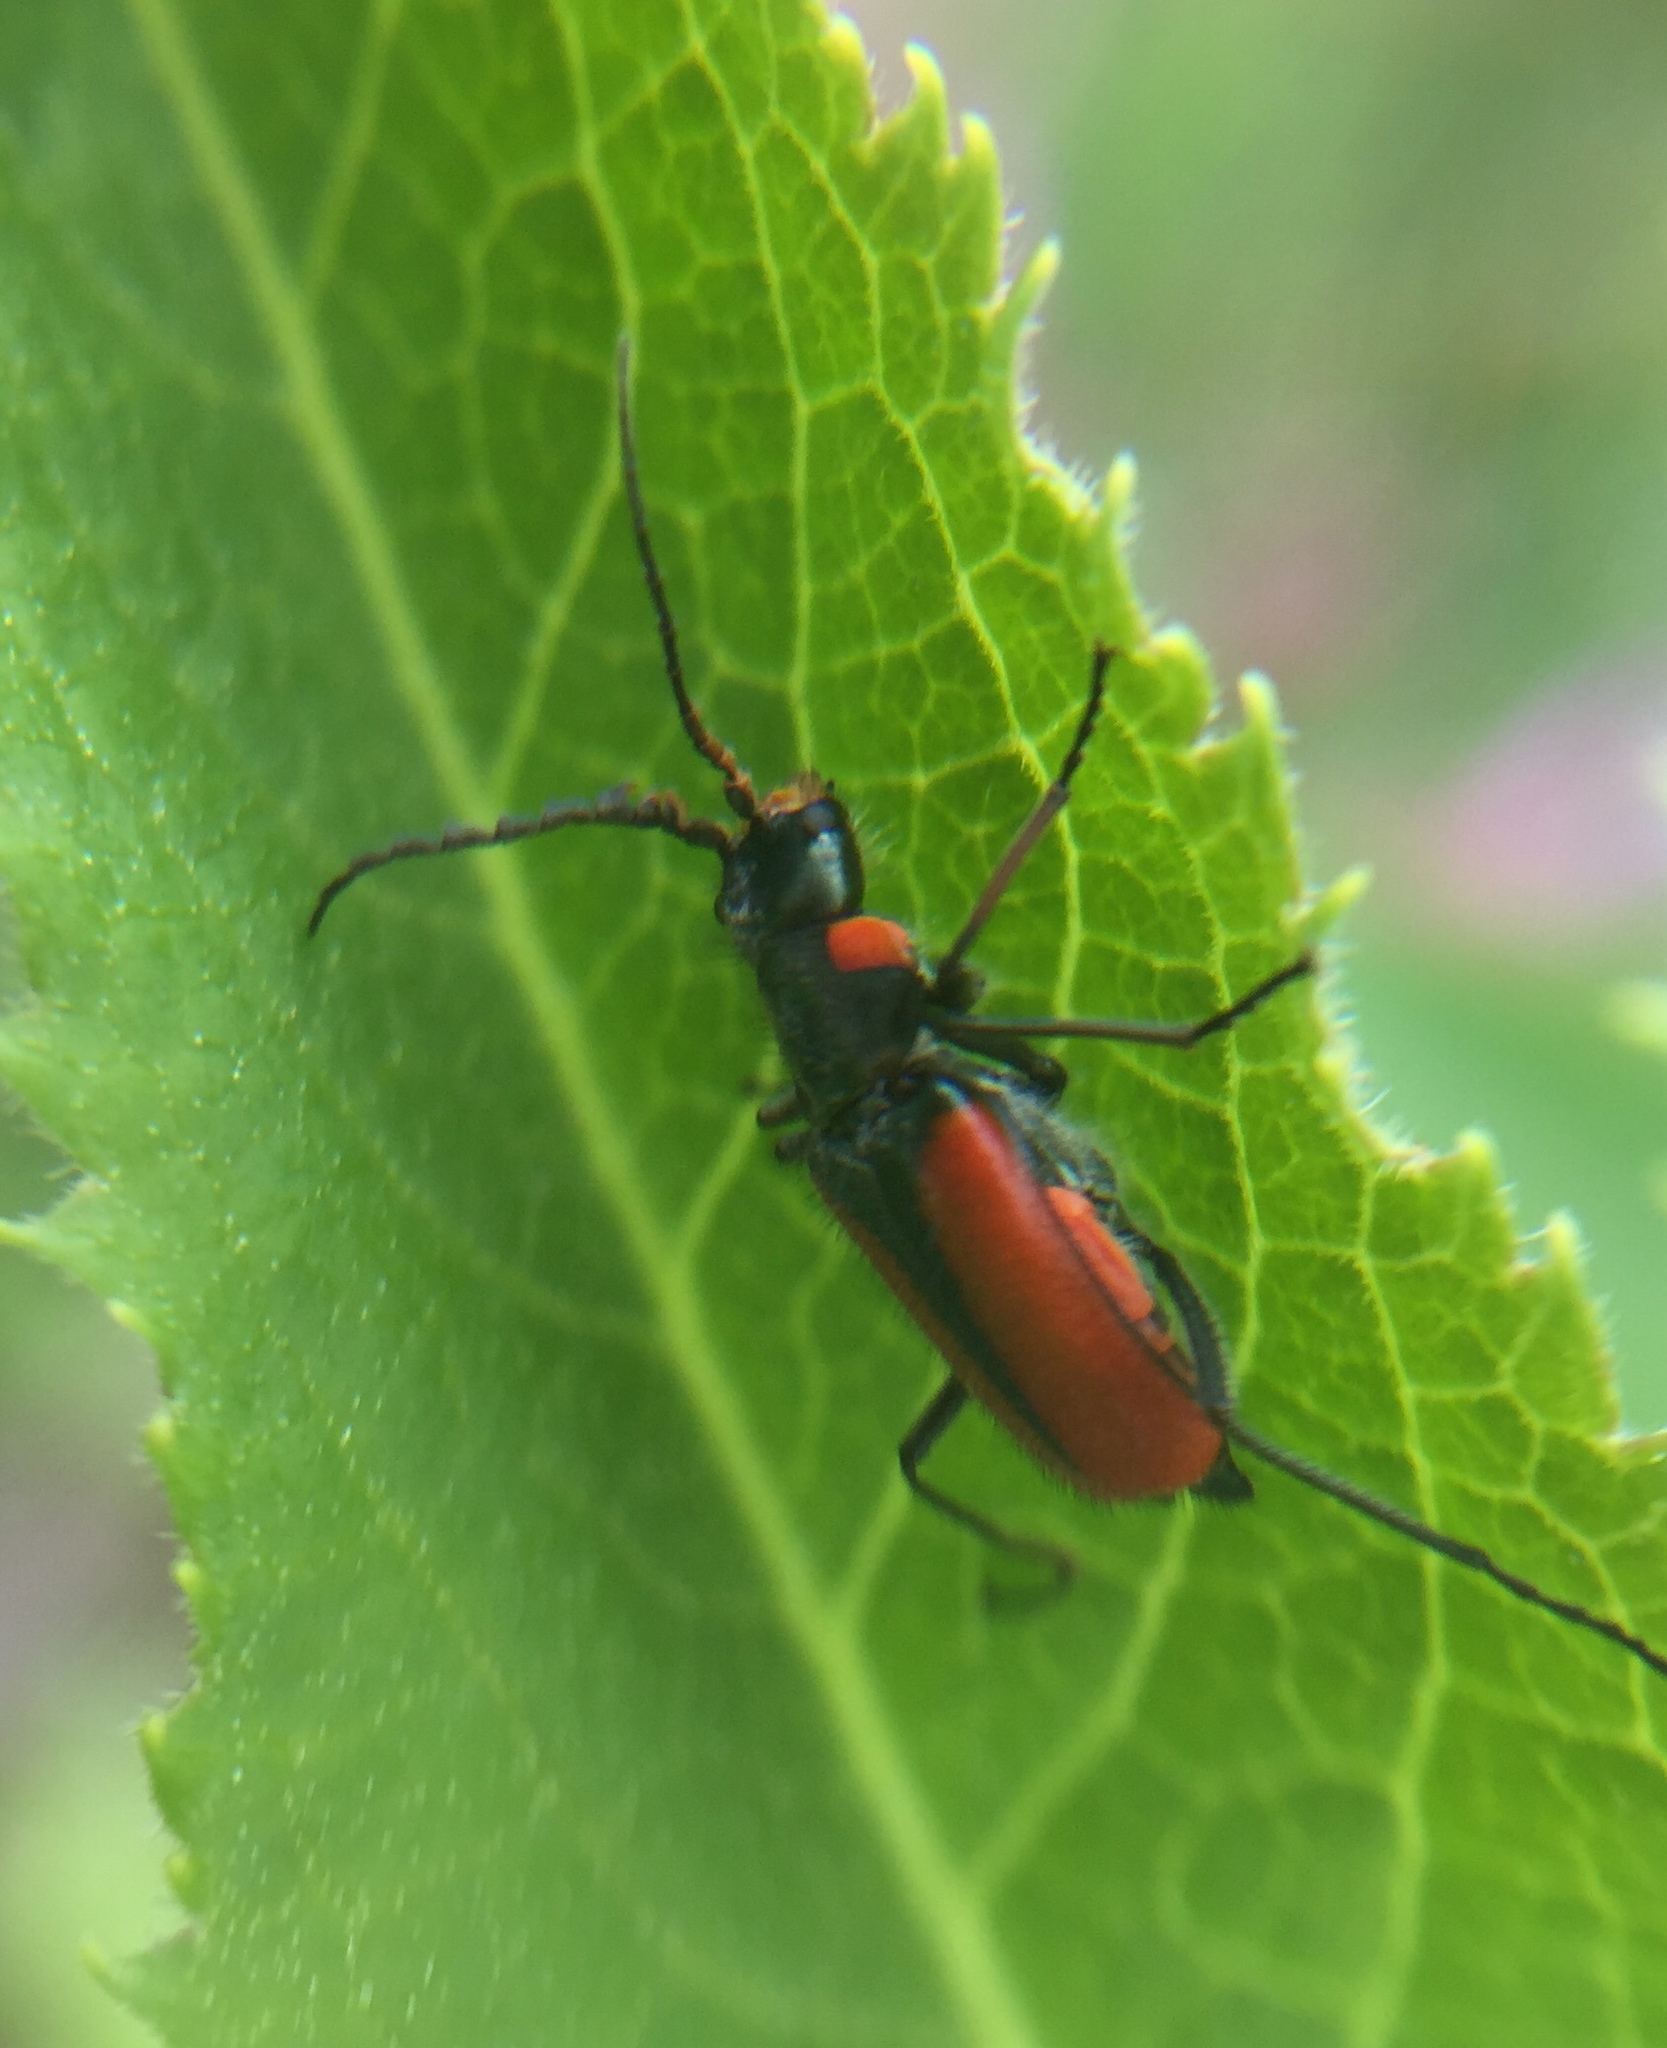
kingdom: Animalia
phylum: Arthropoda
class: Insecta
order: Coleoptera
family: Melyridae
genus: Malachius
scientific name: Malachius
